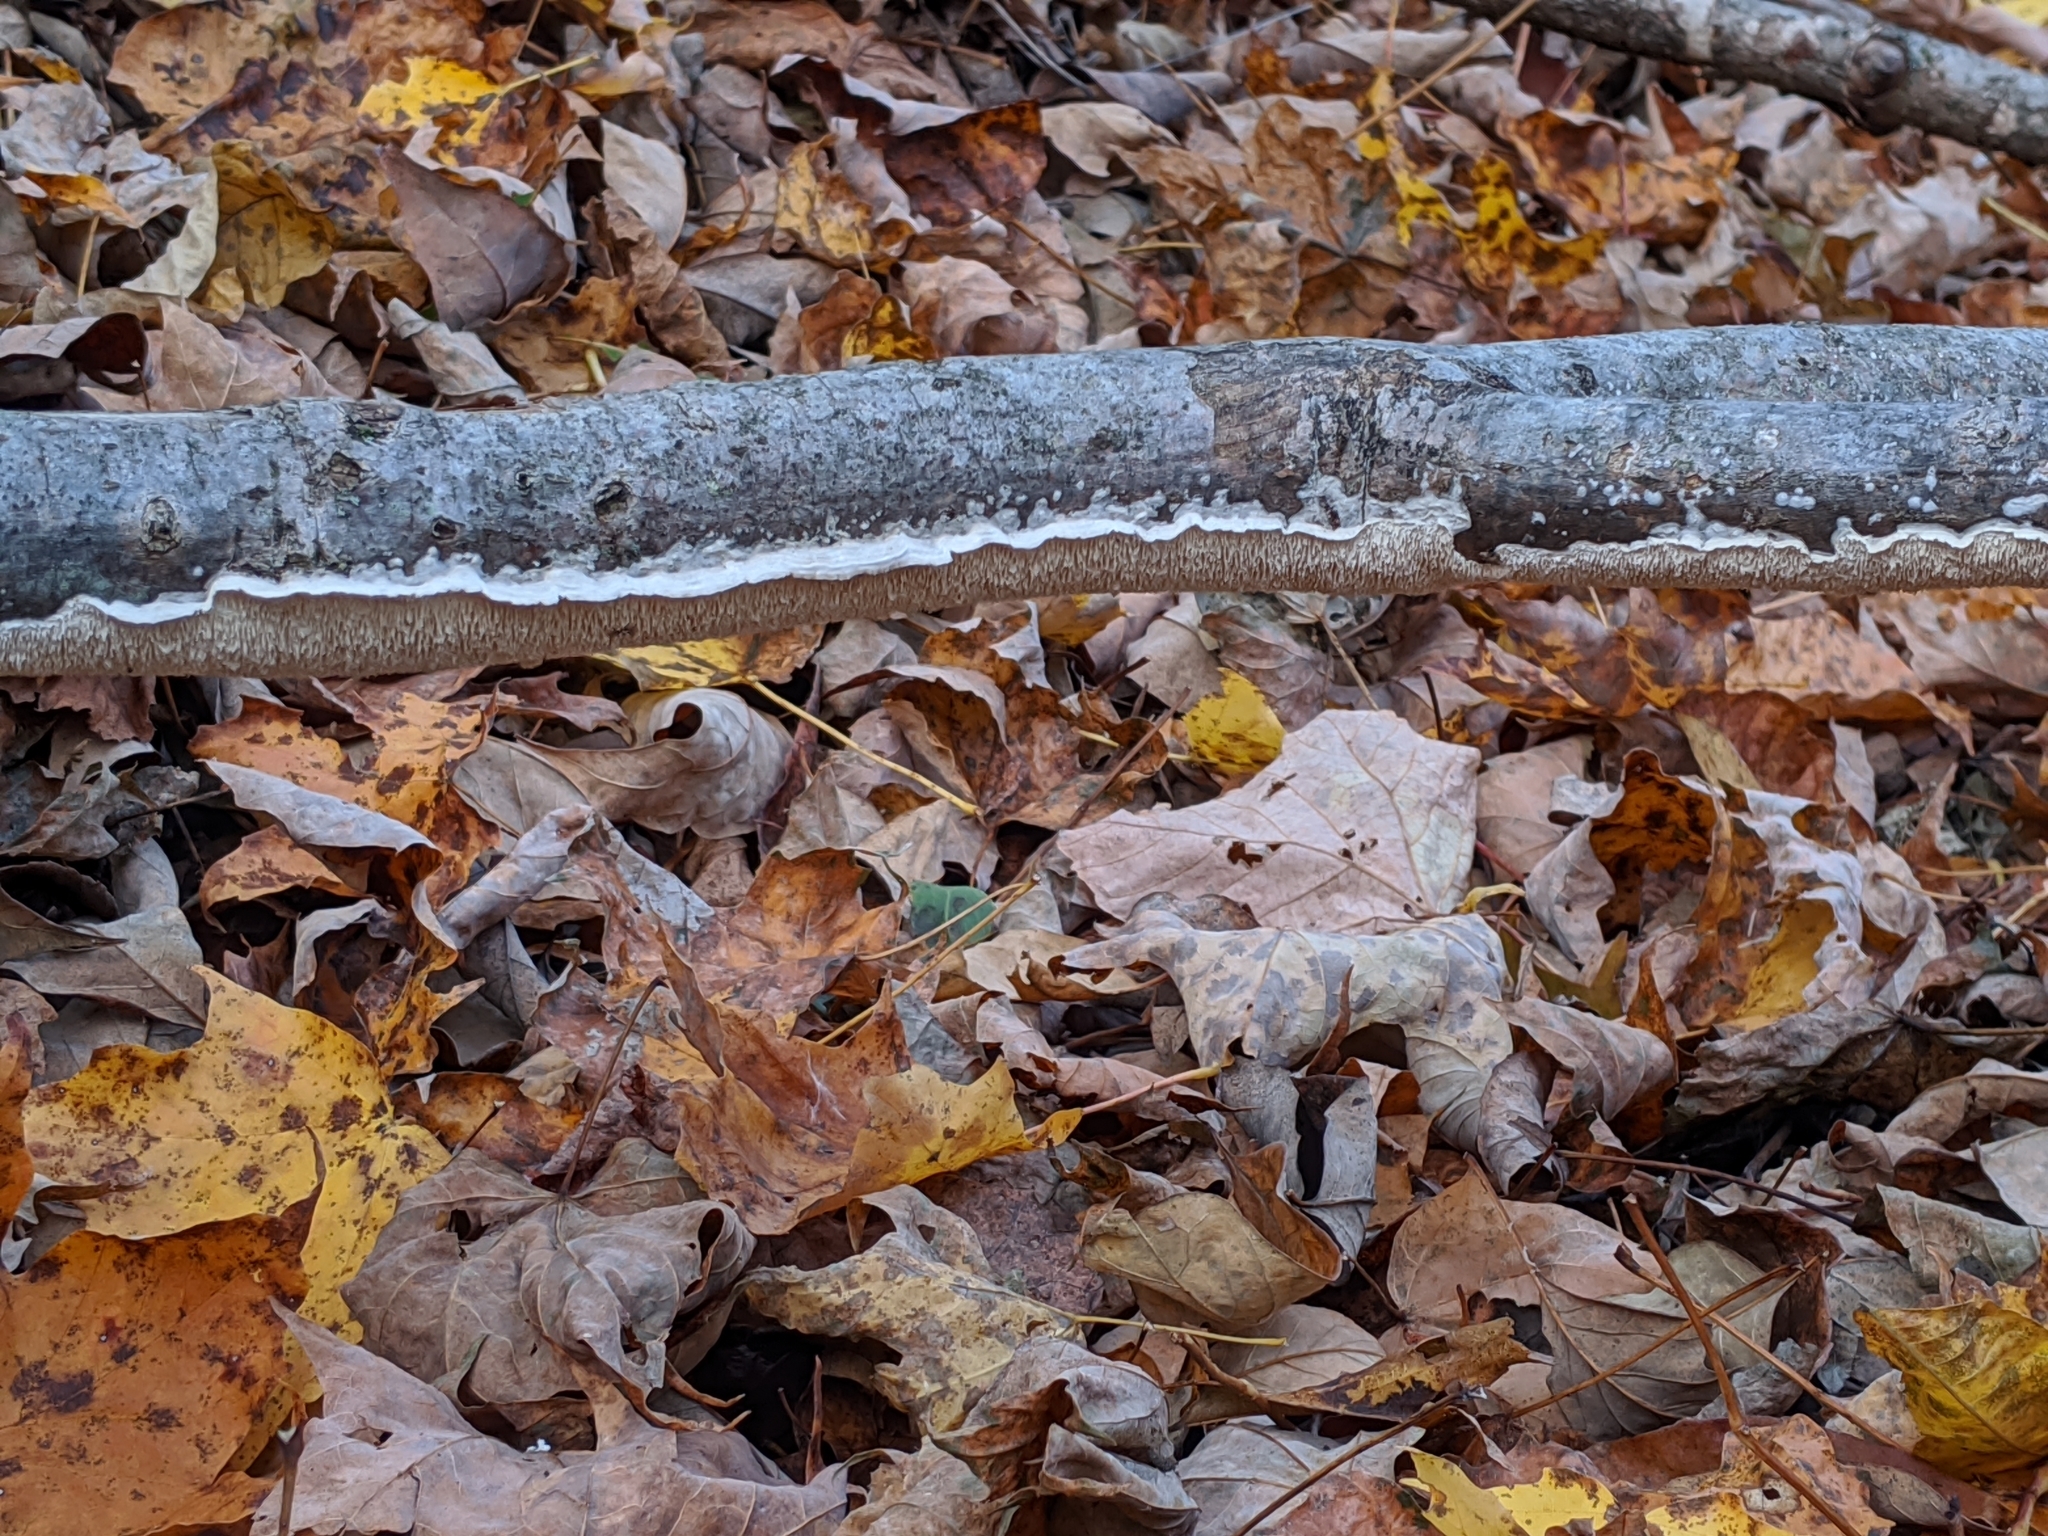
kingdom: Fungi
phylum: Basidiomycota
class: Agaricomycetes
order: Polyporales
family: Irpicaceae
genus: Irpex
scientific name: Irpex lacteus
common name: Milk-white toothed polypore
